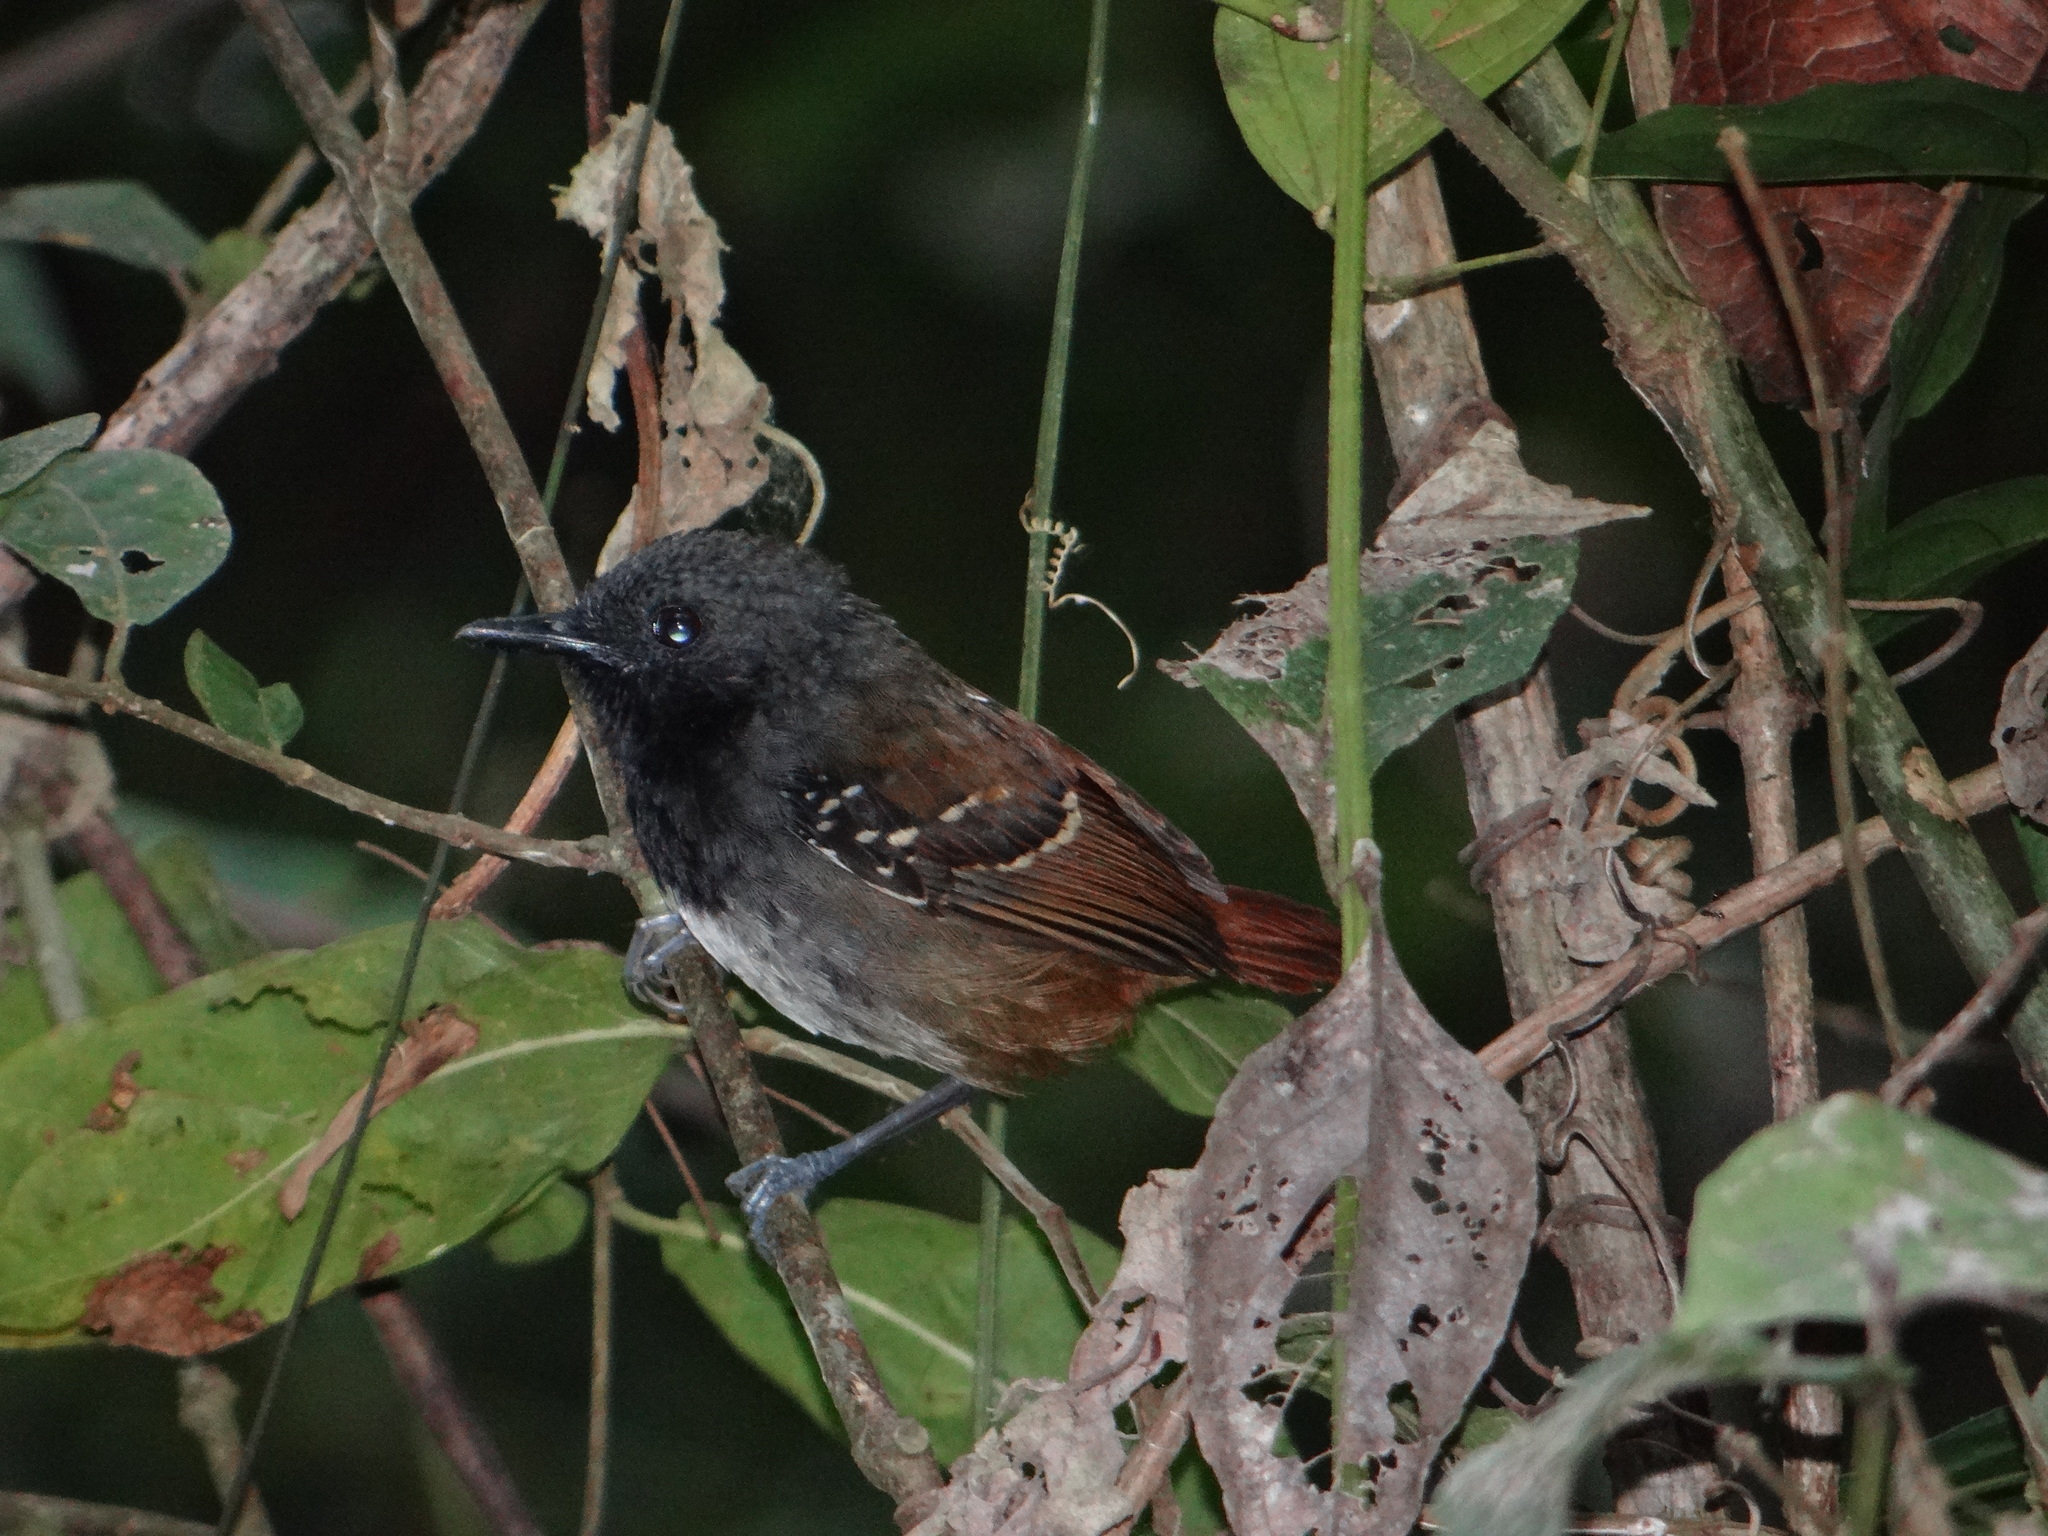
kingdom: Animalia
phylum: Chordata
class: Aves
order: Passeriformes
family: Thamnophilidae
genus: Myrmeciza
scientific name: Myrmeciza hemimelaena
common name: Southern chestnut-tailed antbird
